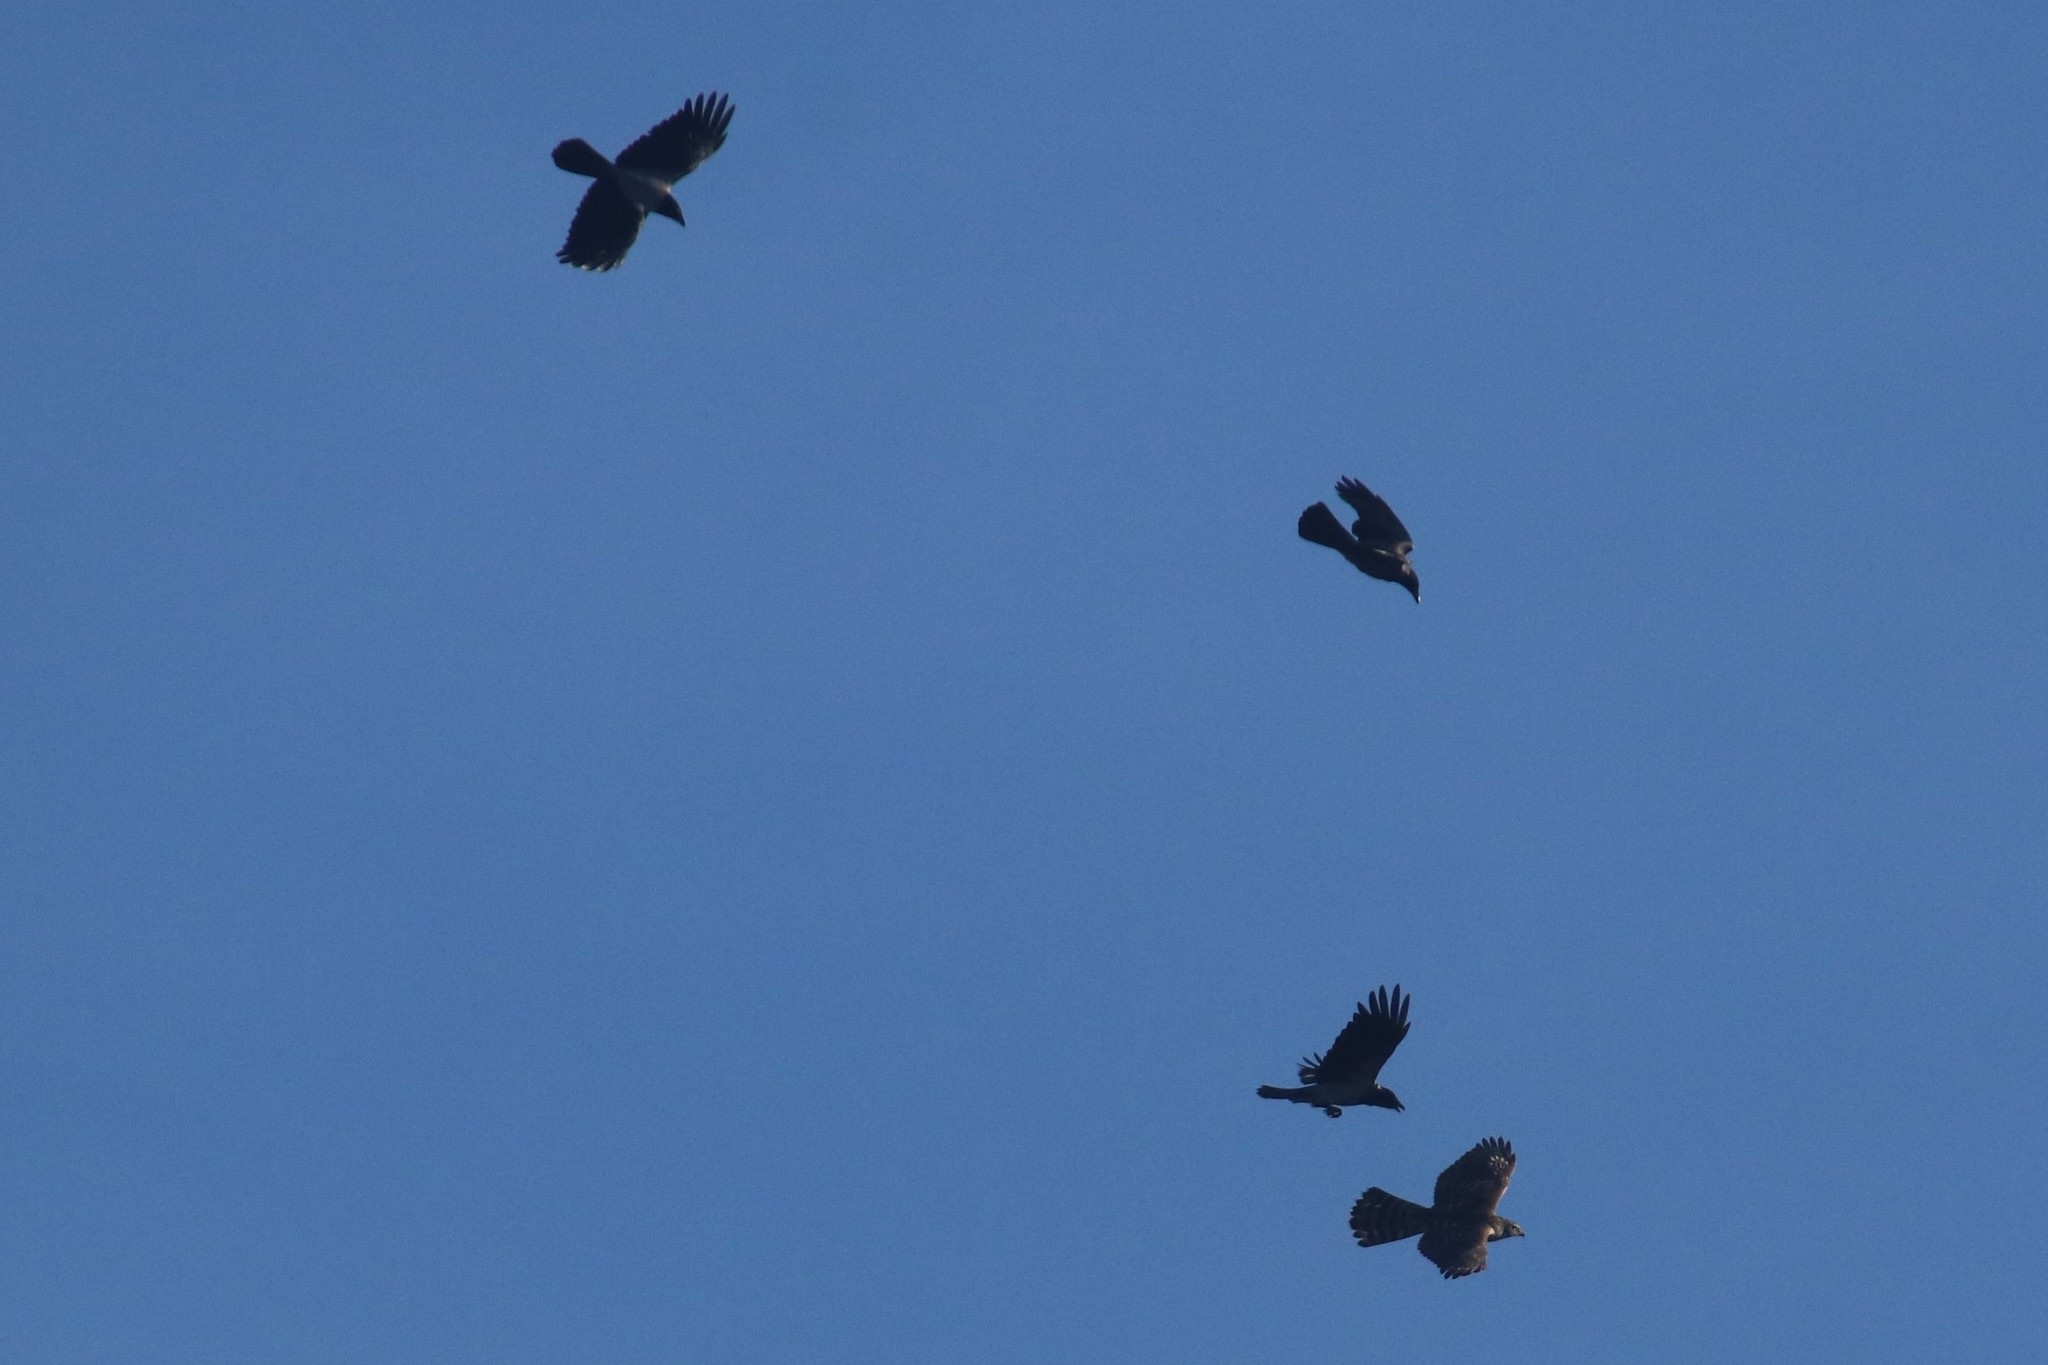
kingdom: Animalia
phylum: Chordata
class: Aves
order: Accipitriformes
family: Accipitridae
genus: Accipiter
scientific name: Accipiter gentilis
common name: Northern goshawk
